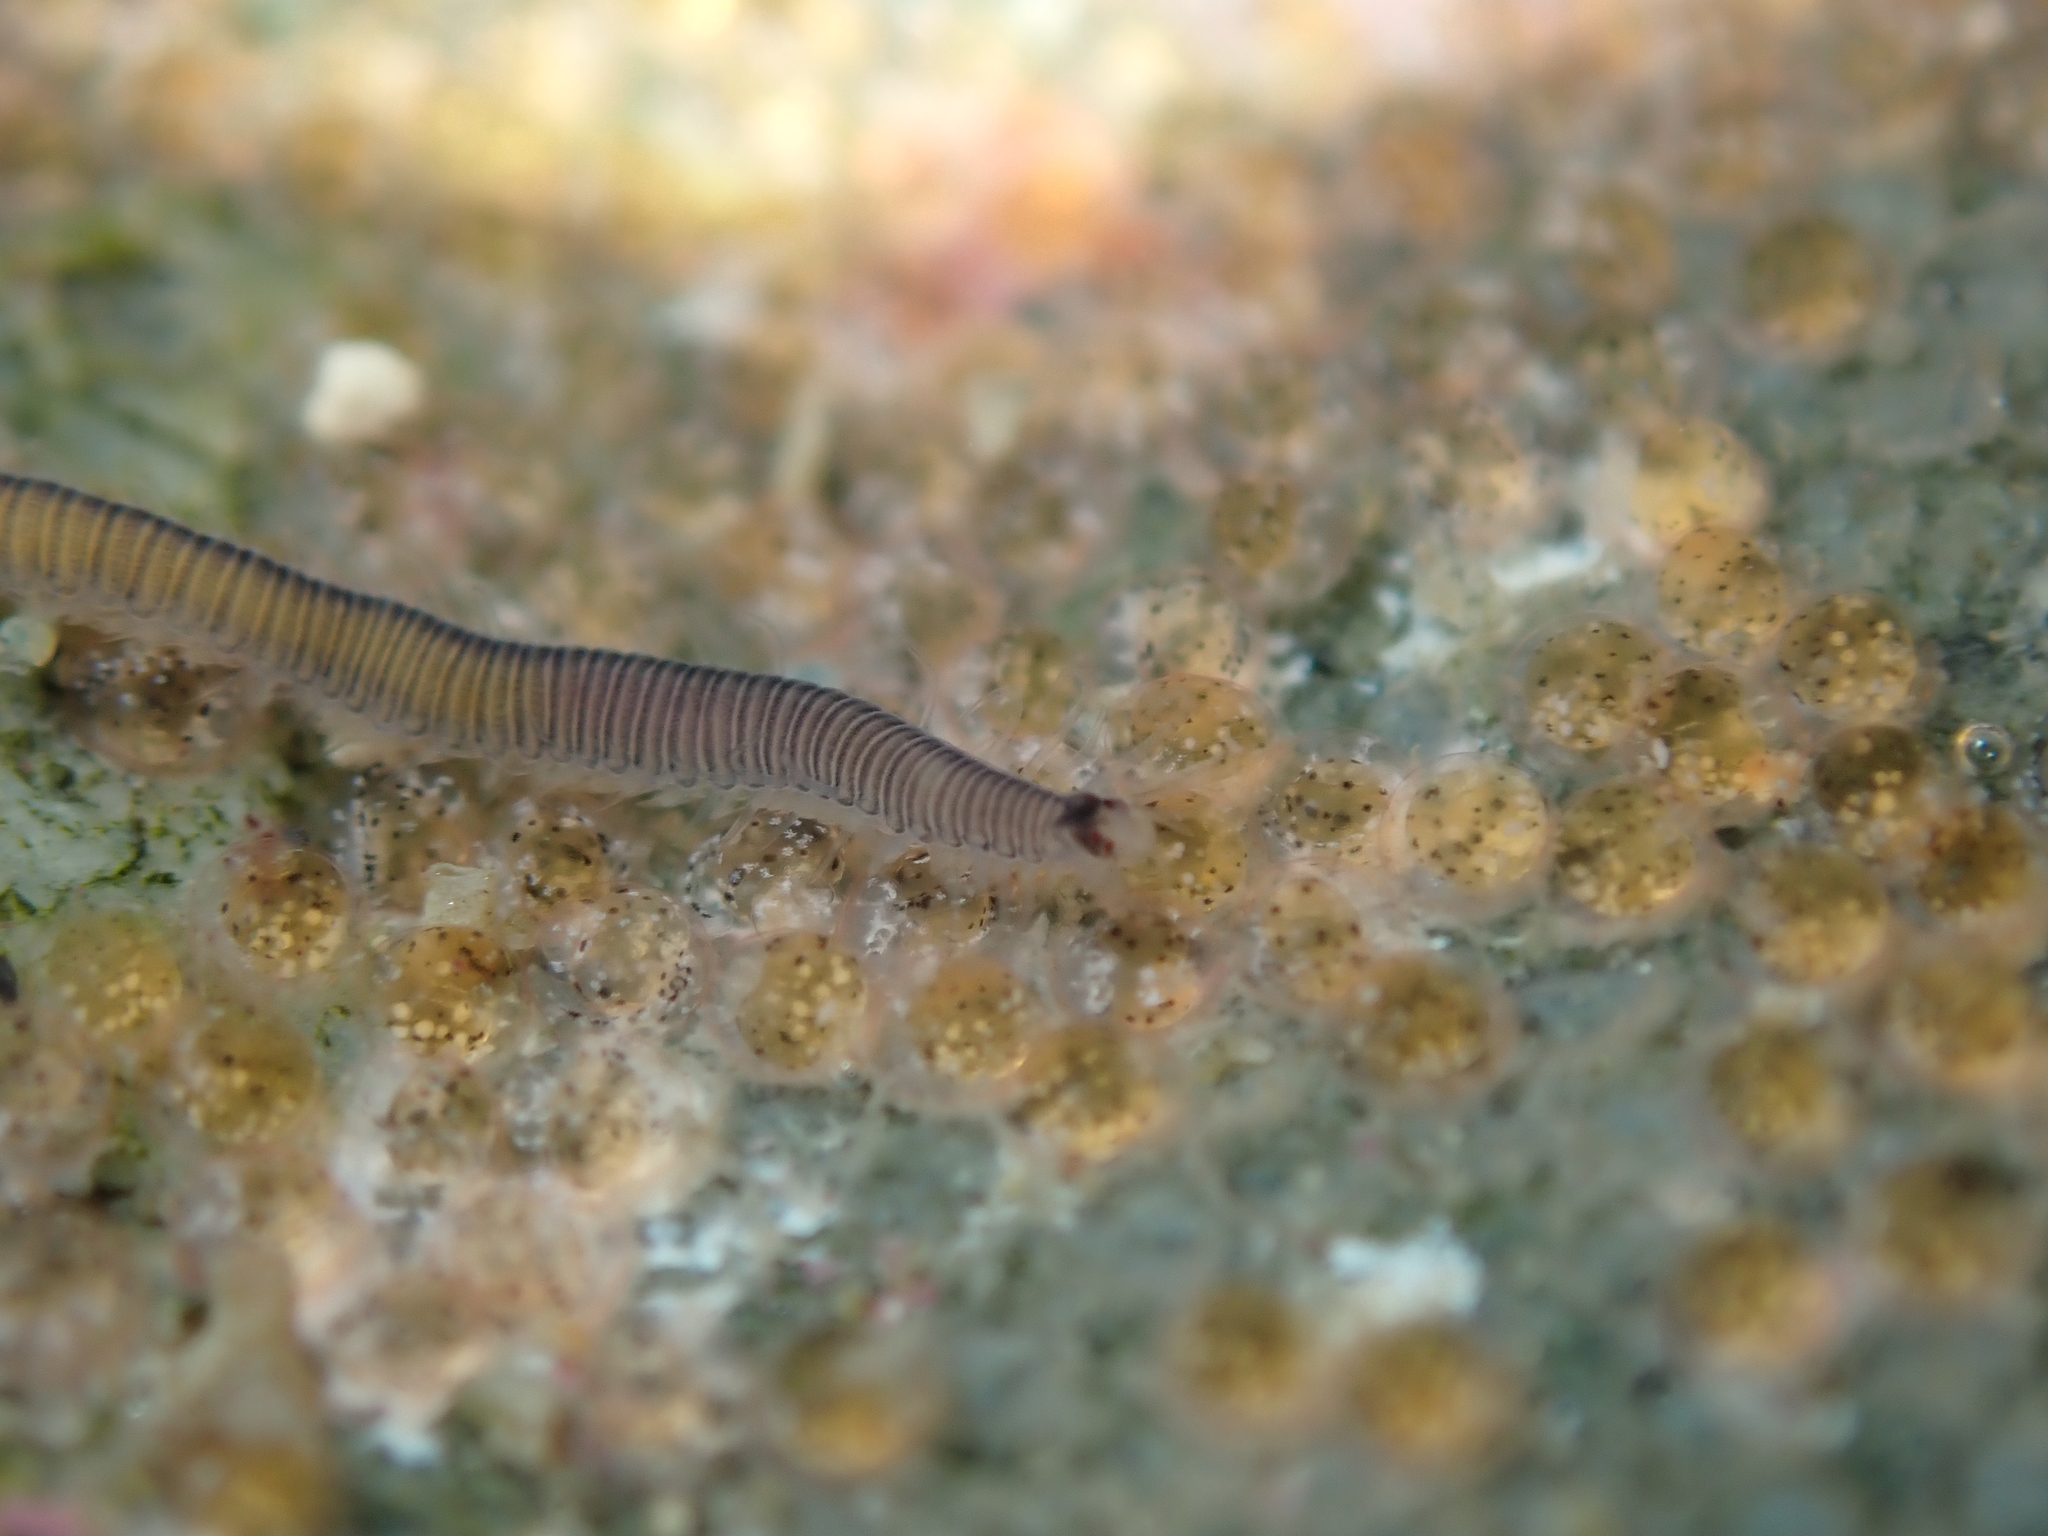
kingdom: Animalia
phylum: Annelida
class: Polychaeta
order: Phyllodocida
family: Syllidae
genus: Odontosyllis
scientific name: Odontosyllis polycera
